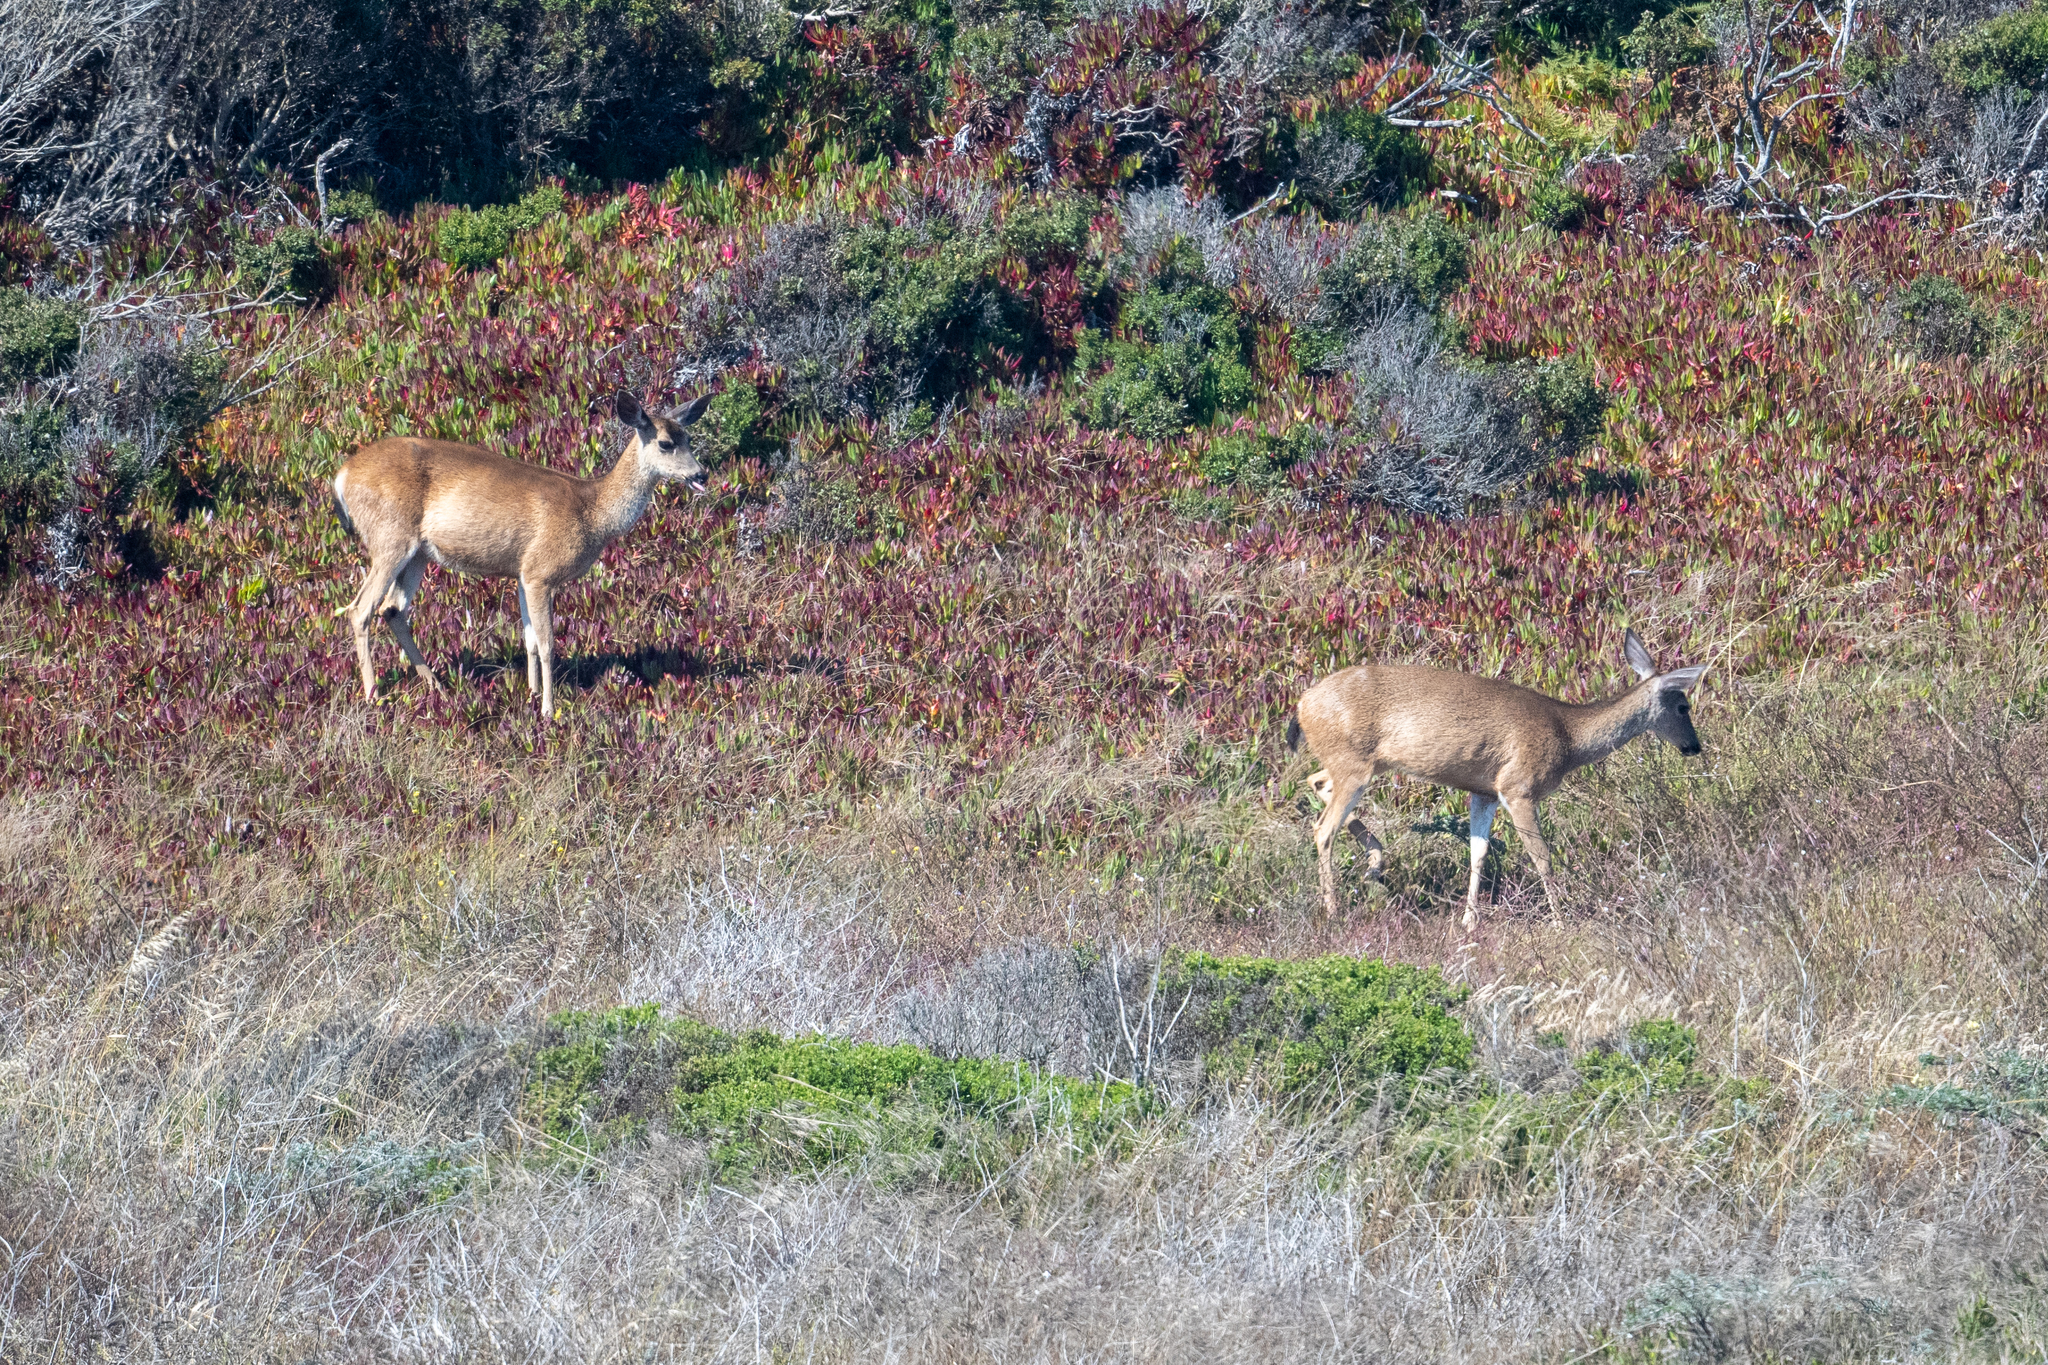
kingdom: Animalia
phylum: Chordata
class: Mammalia
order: Artiodactyla
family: Cervidae
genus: Odocoileus
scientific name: Odocoileus hemionus
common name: Mule deer
